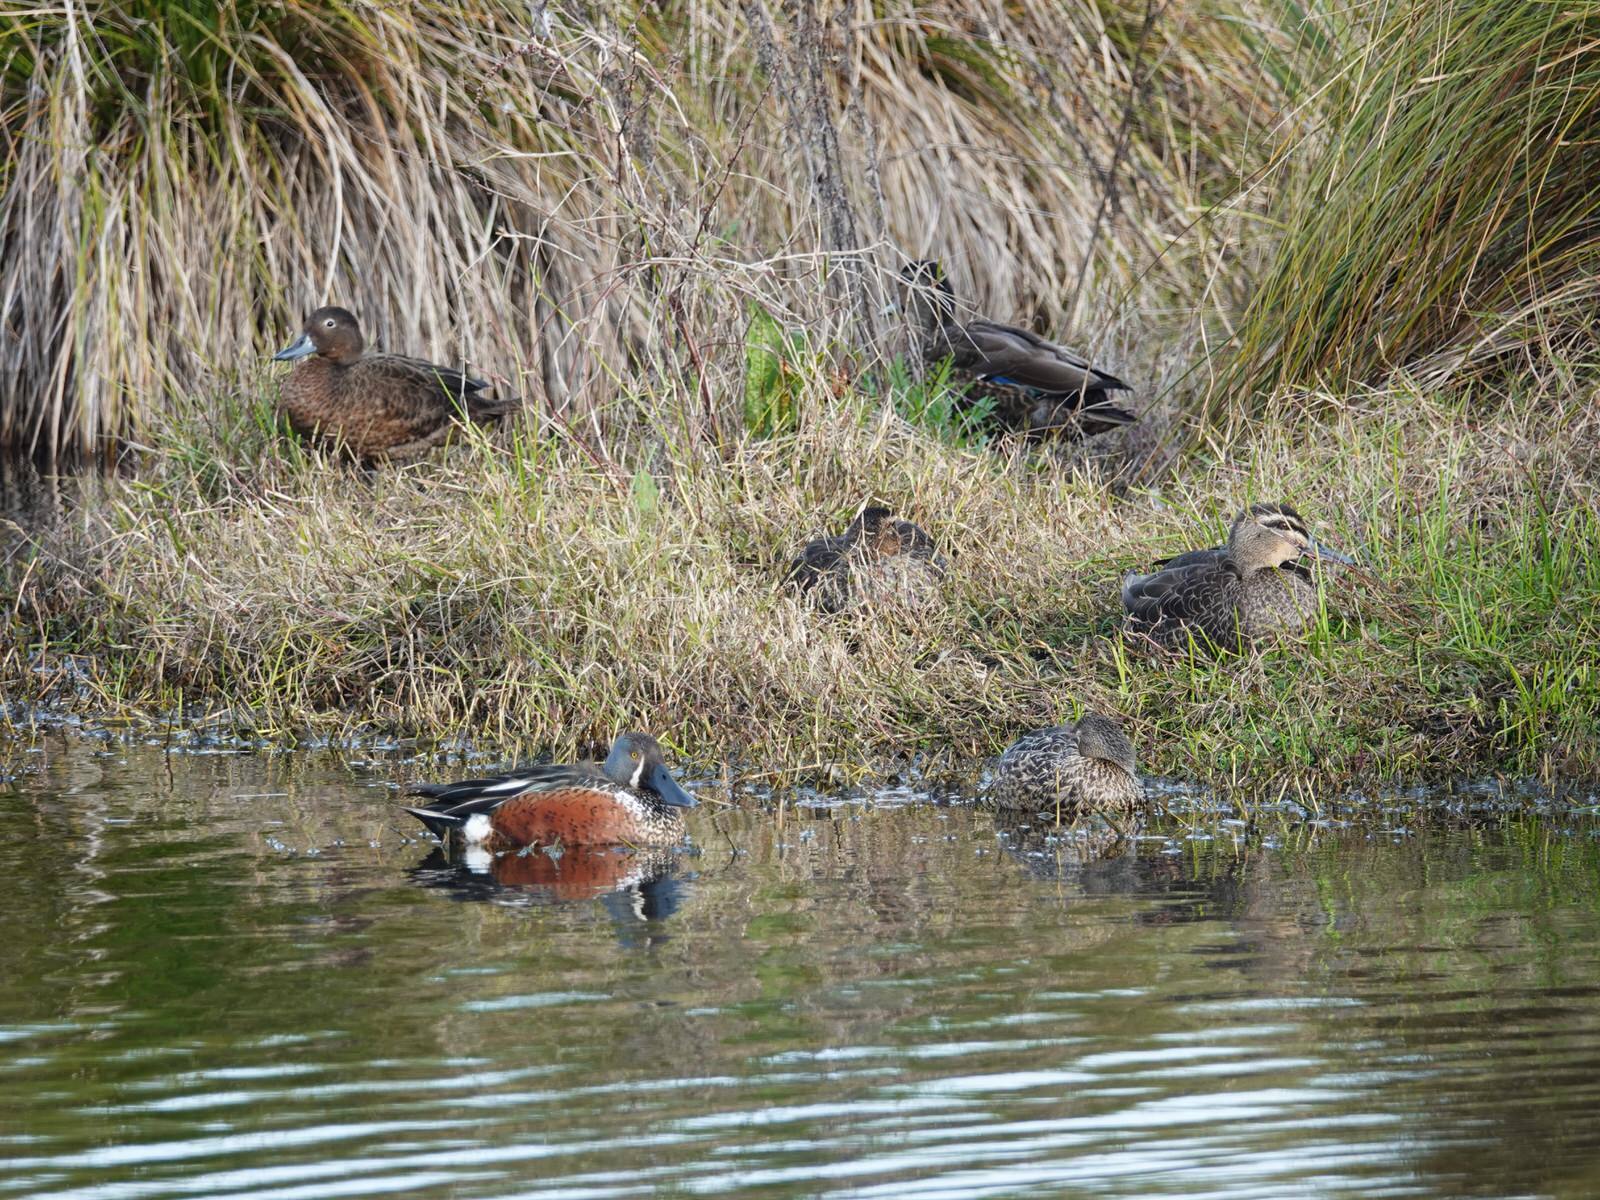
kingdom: Animalia
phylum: Chordata
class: Aves
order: Anseriformes
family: Anatidae
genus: Anas
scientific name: Anas chlorotis
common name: Brown teal
